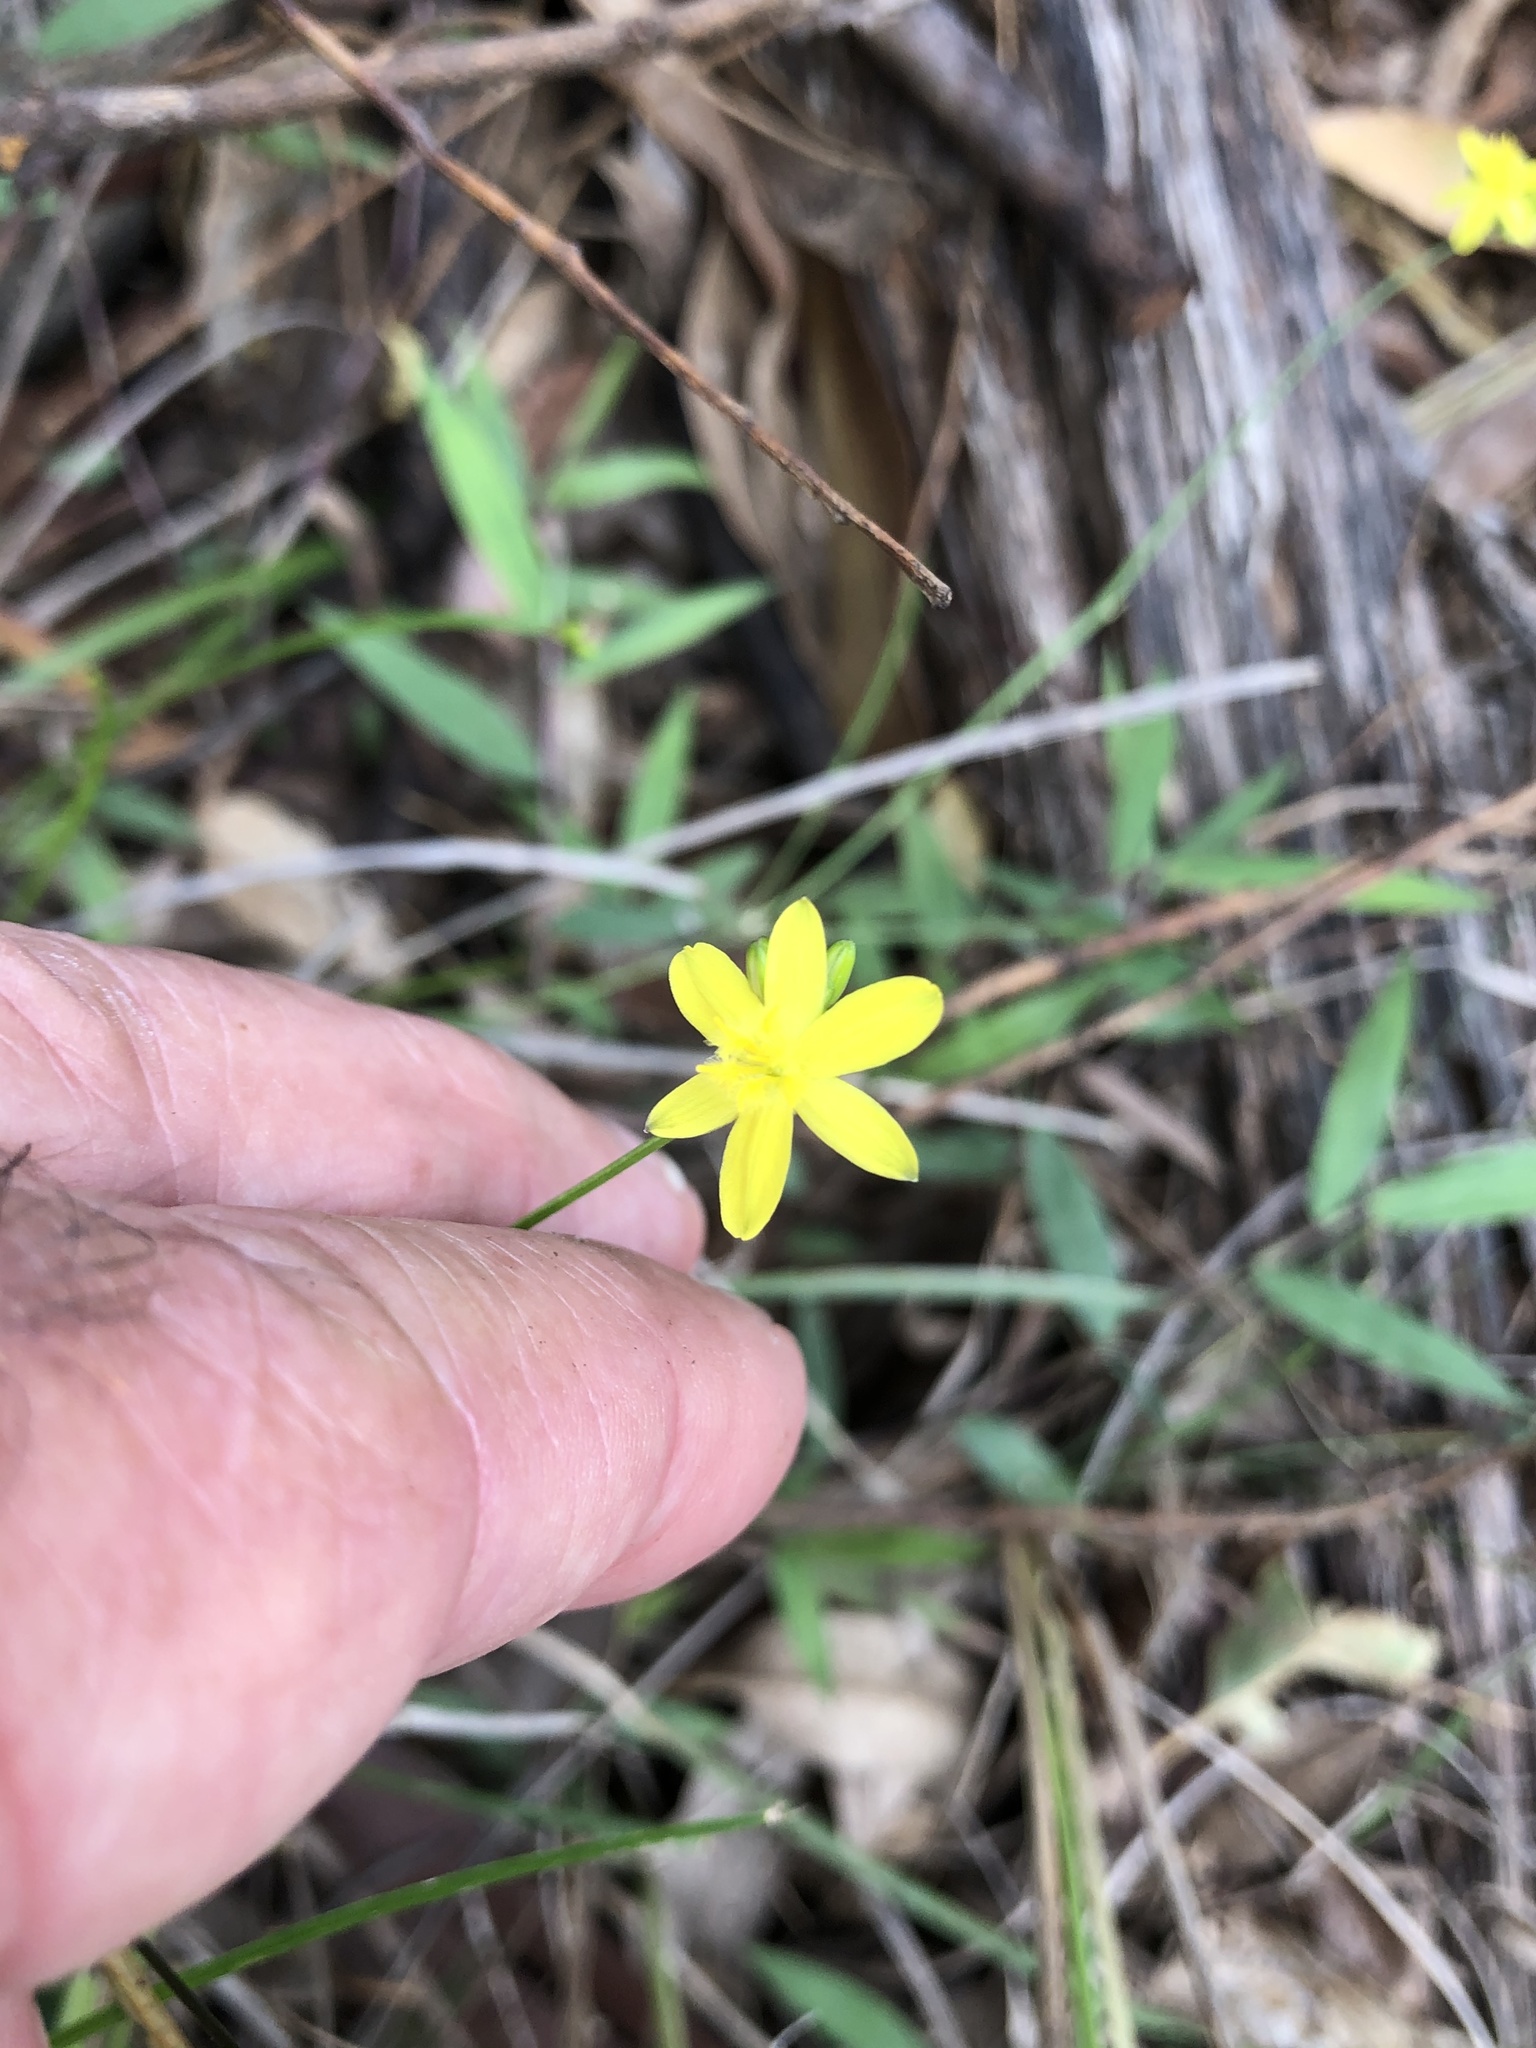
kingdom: Plantae
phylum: Tracheophyta
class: Liliopsida
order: Asparagales
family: Asphodelaceae
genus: Tricoryne
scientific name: Tricoryne anceps
